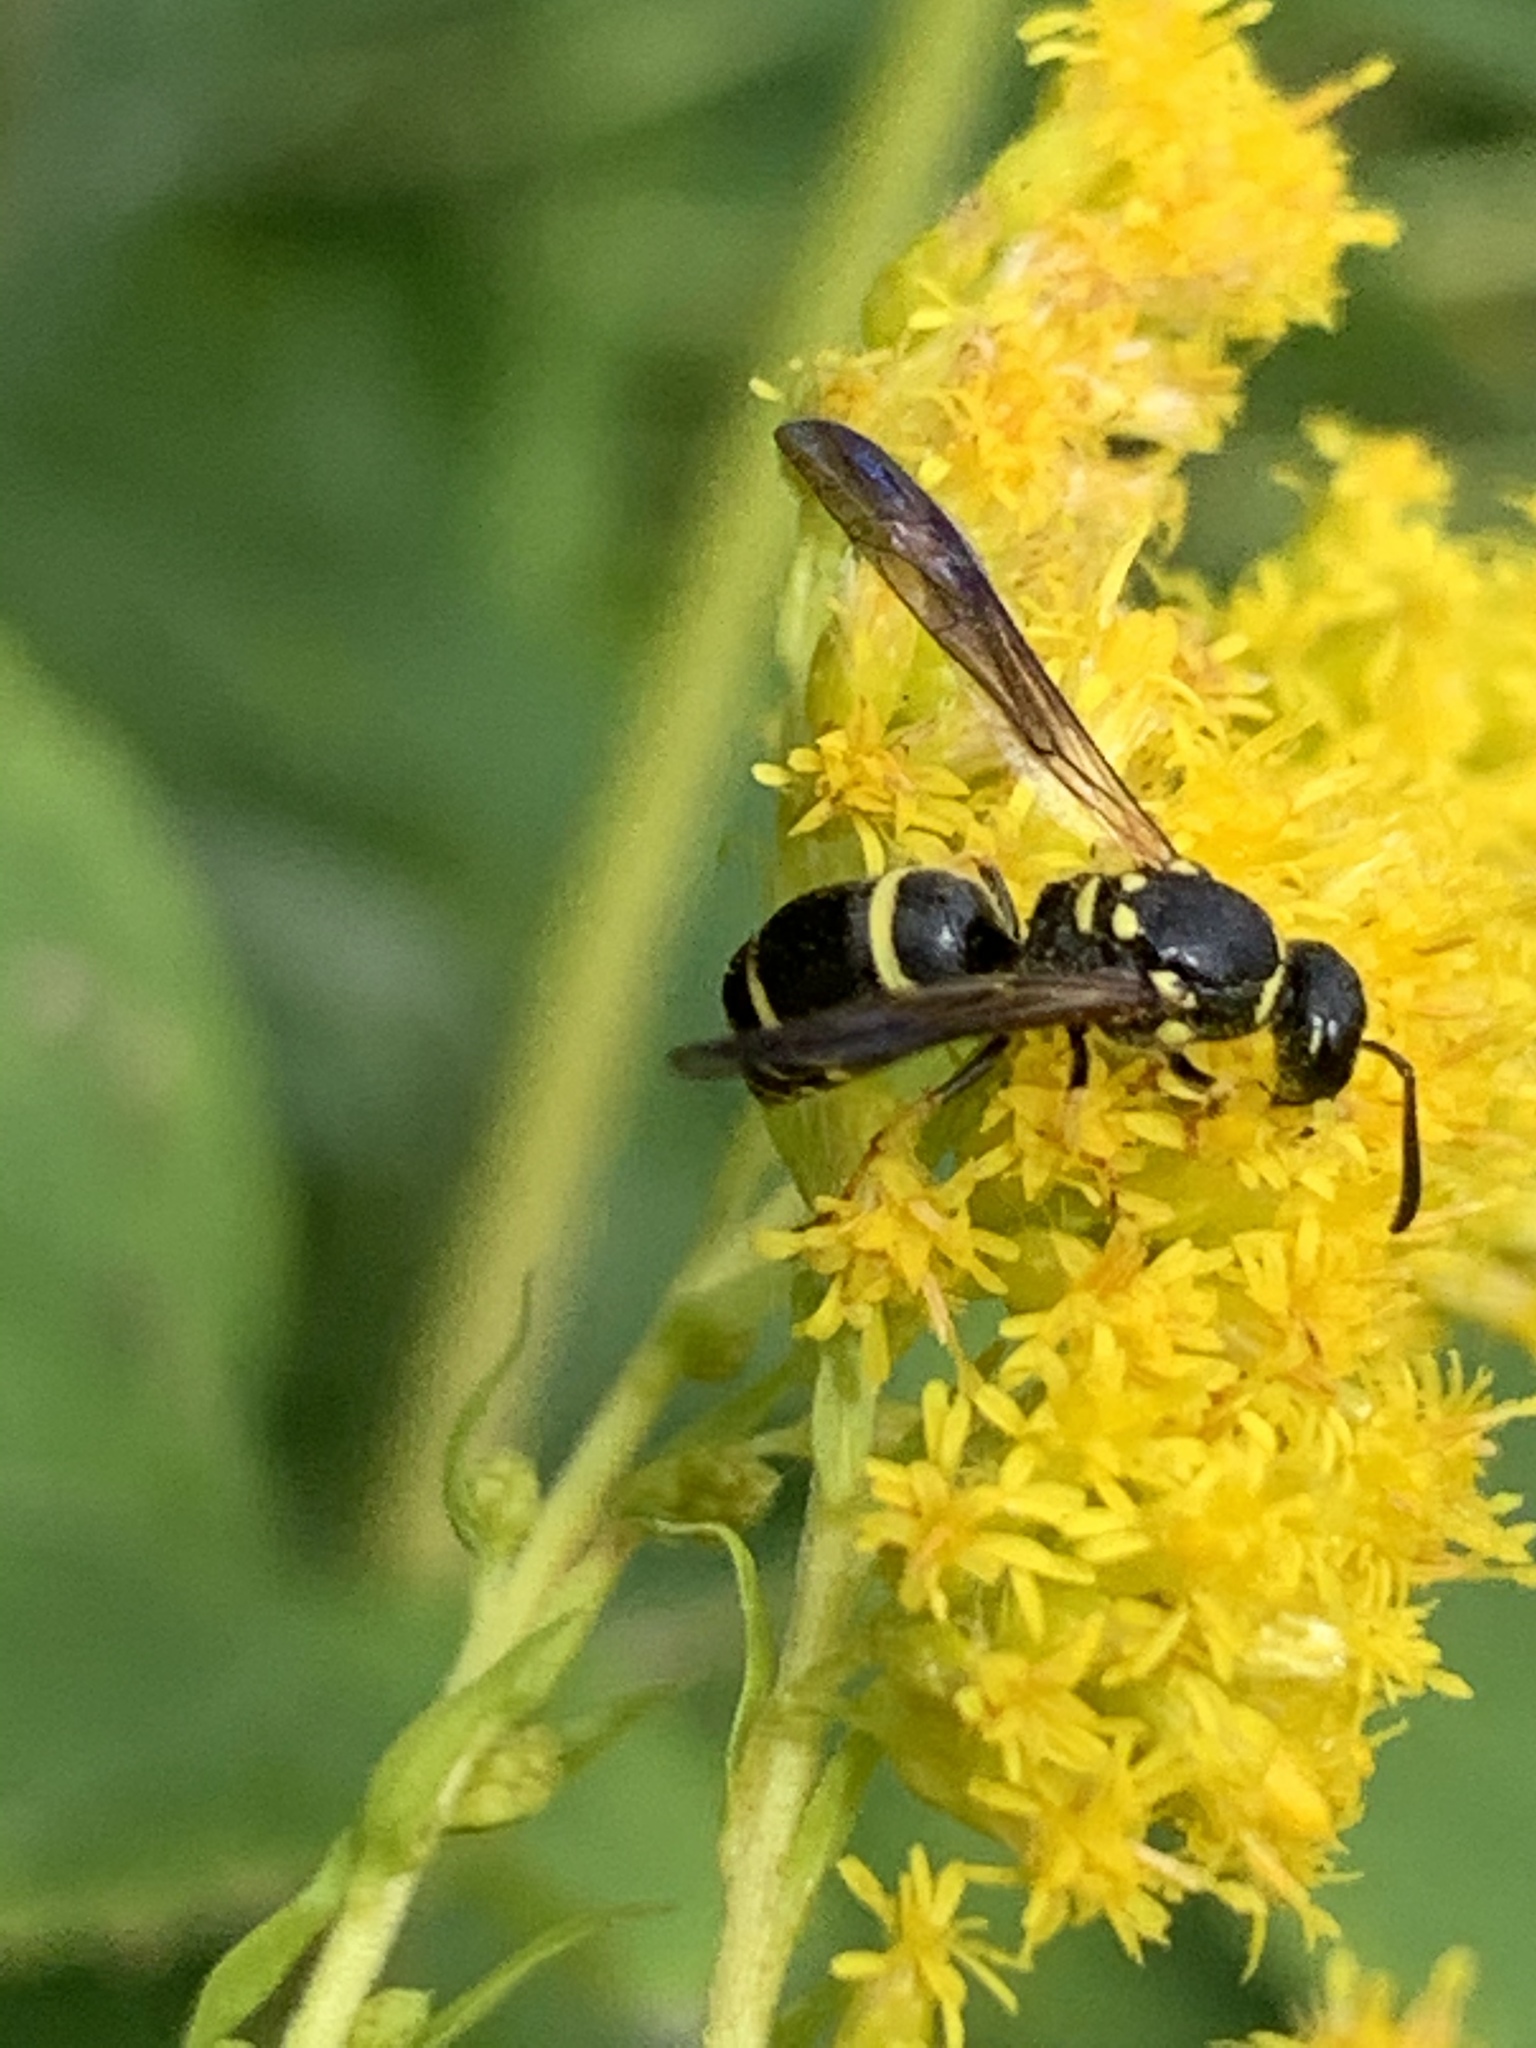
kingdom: Animalia
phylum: Arthropoda
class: Insecta
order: Hymenoptera
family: Vespidae
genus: Ancistrocerus
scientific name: Ancistrocerus adiabatus
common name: Bramble mason wasp
